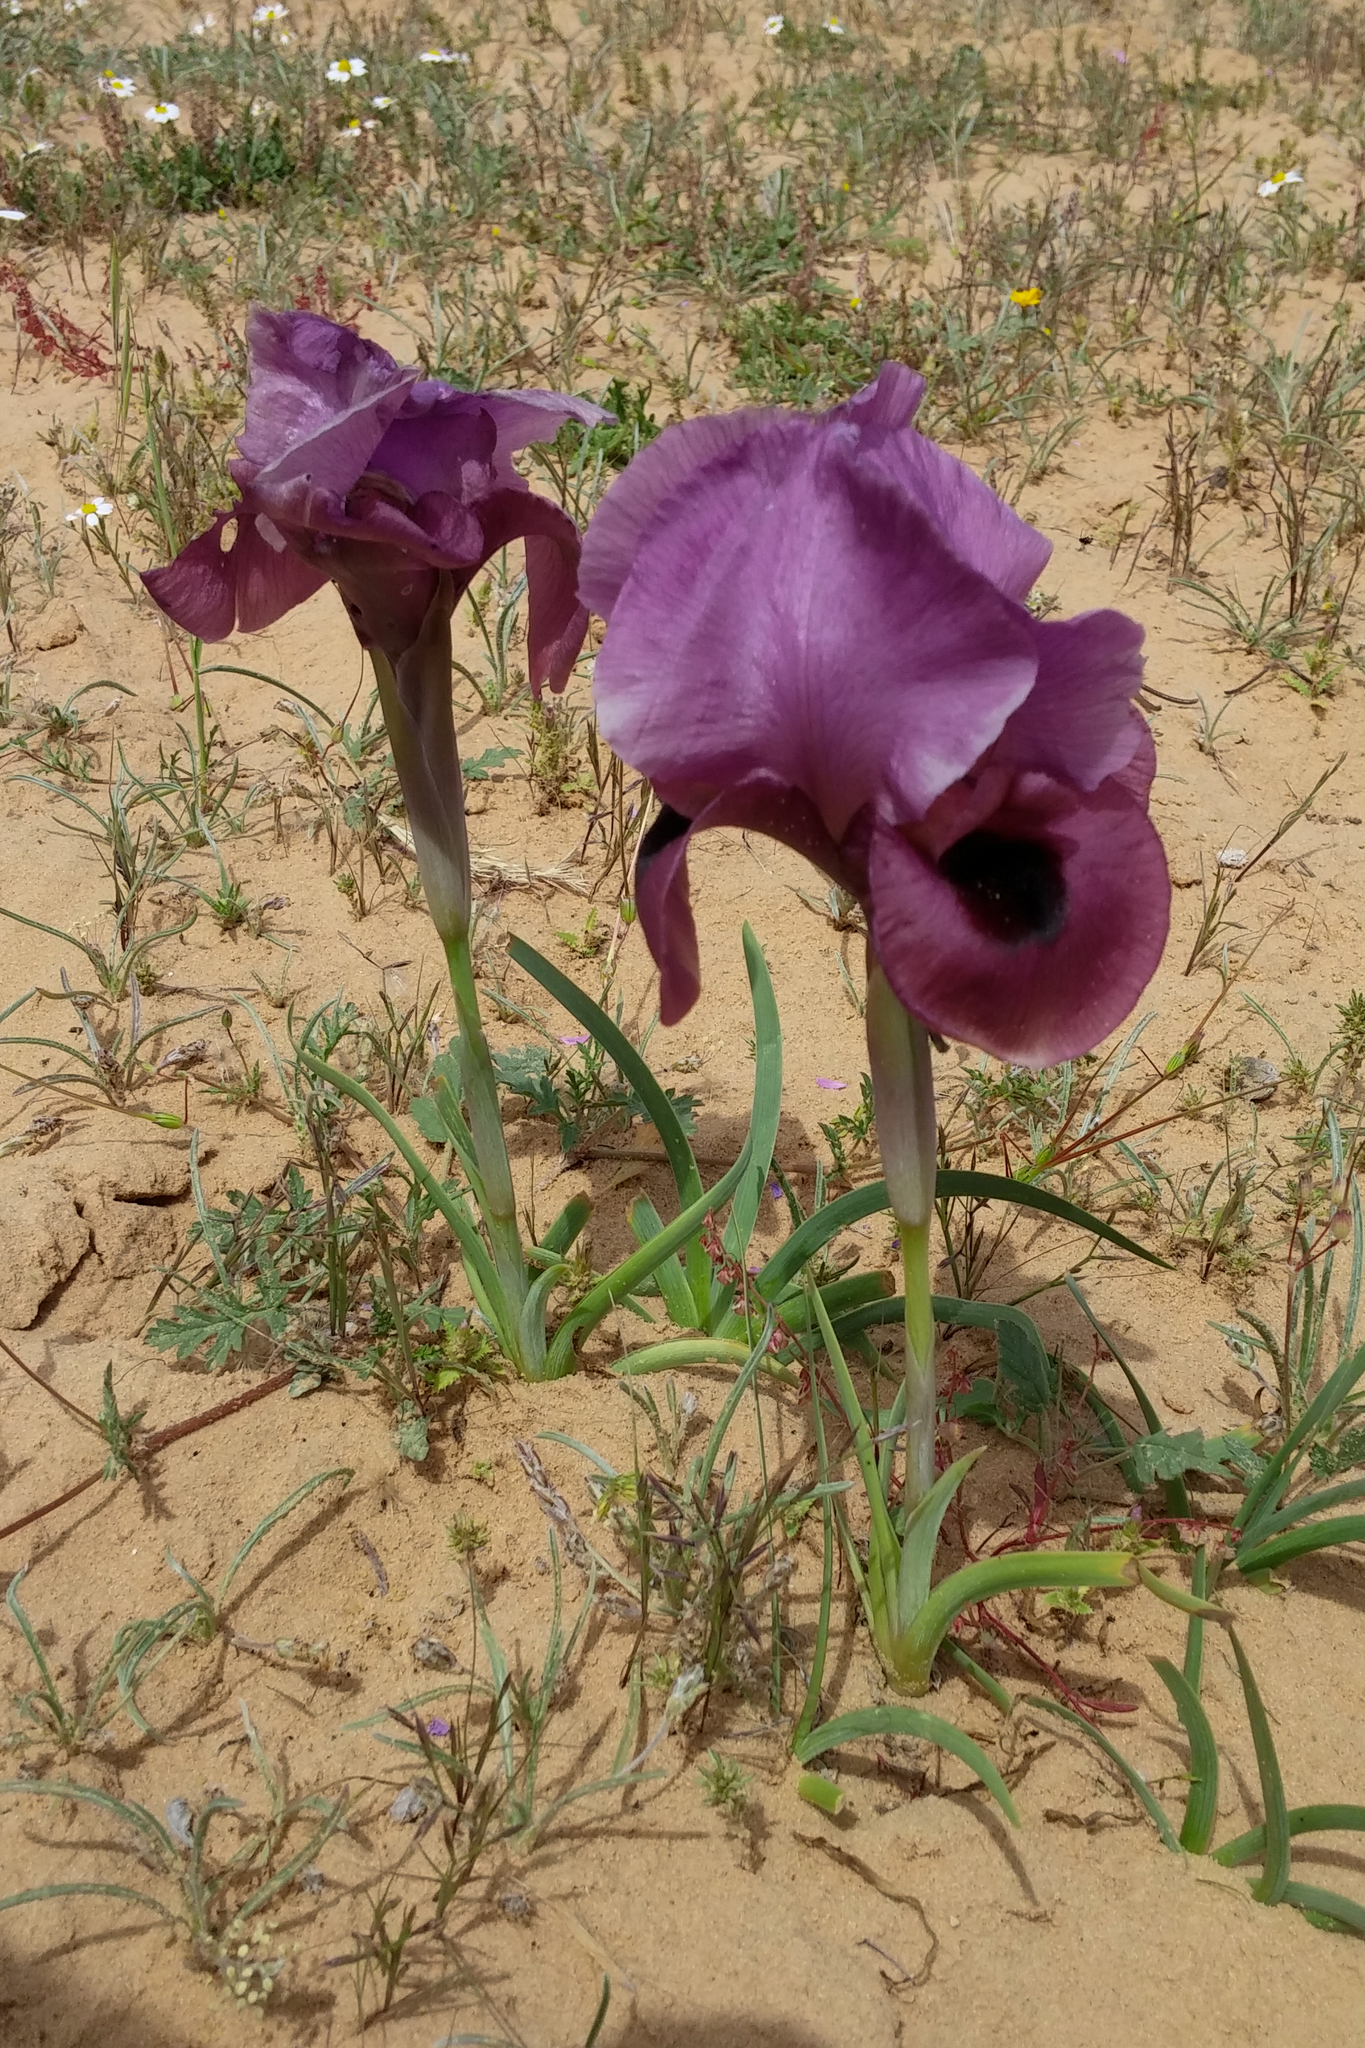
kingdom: Plantae
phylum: Tracheophyta
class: Liliopsida
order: Asparagales
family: Iridaceae
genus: Iris
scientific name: Iris mariae
